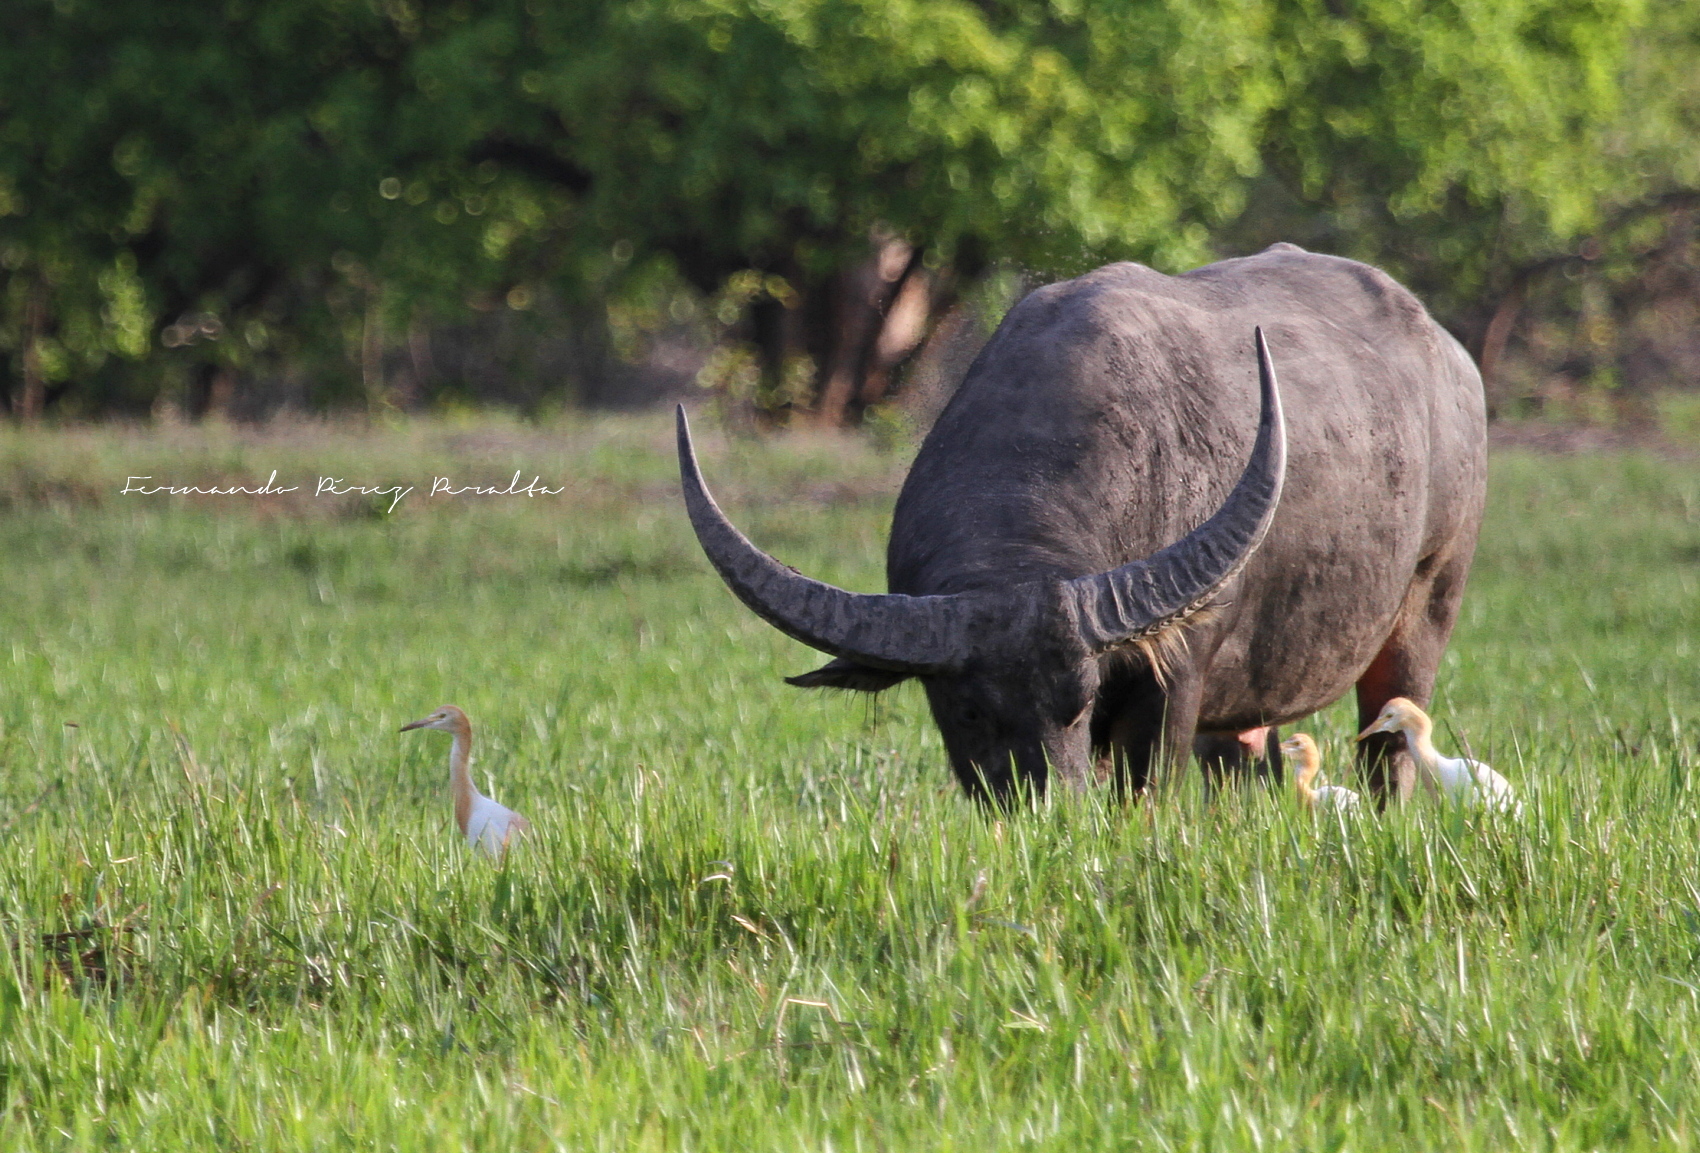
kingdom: Animalia
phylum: Chordata
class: Mammalia
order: Artiodactyla
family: Bovidae
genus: Bubalus
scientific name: Bubalus bubalis
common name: Water buffalo
